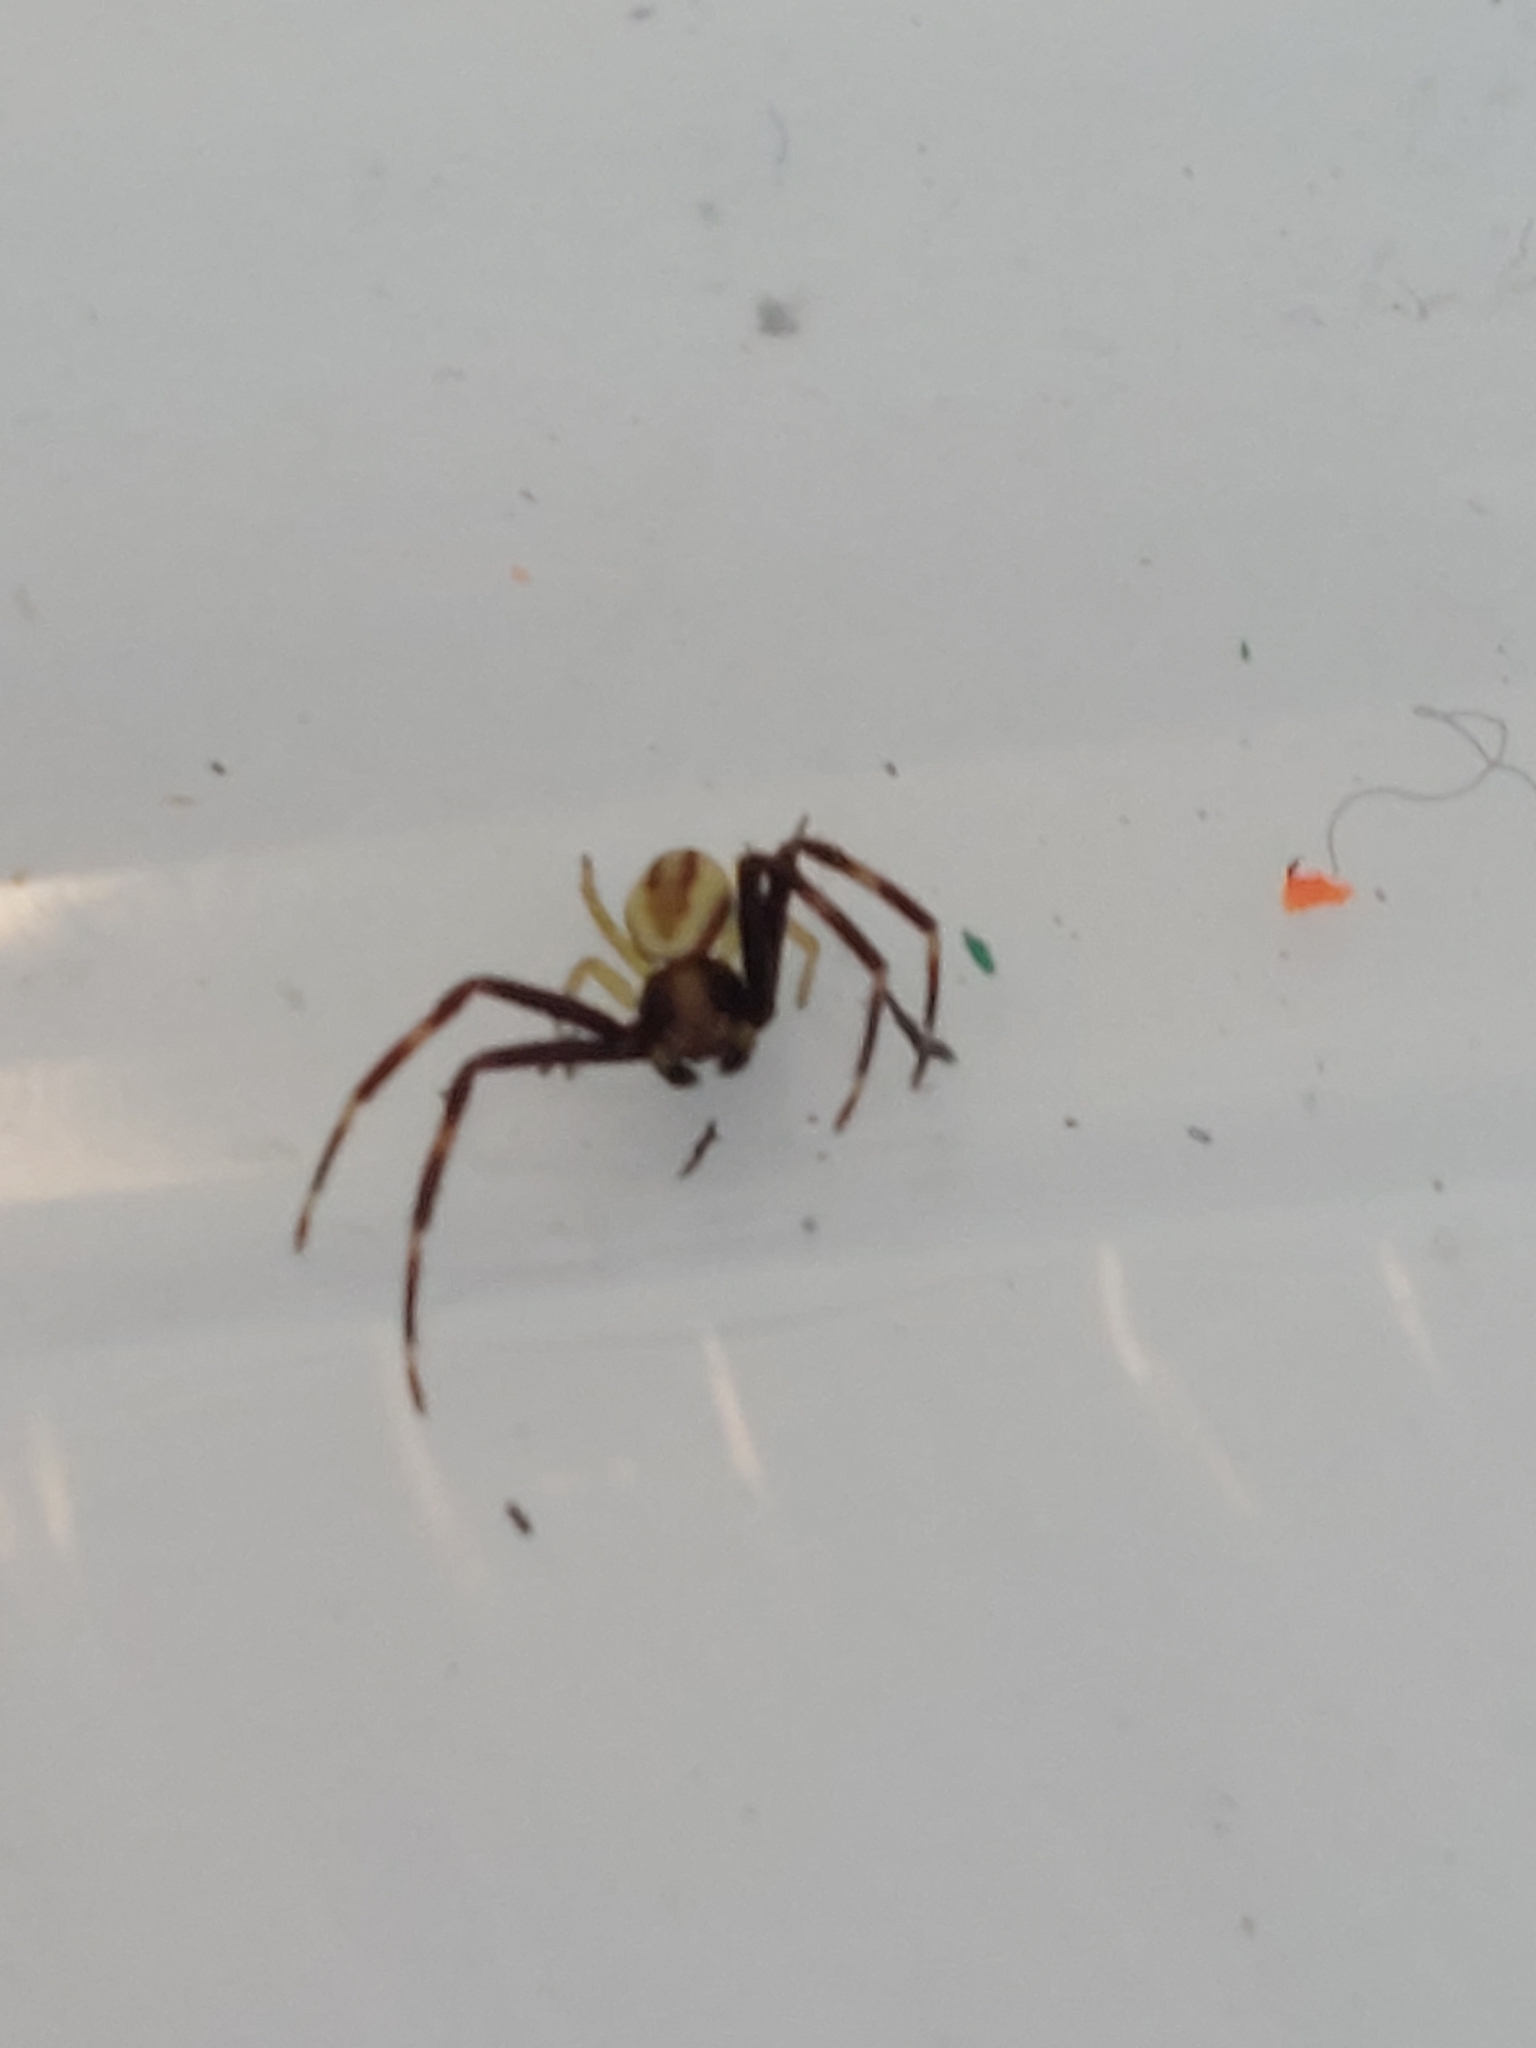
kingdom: Animalia
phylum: Arthropoda
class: Arachnida
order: Araneae
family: Thomisidae
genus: Misumena
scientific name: Misumena vatia
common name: Goldenrod crab spider
